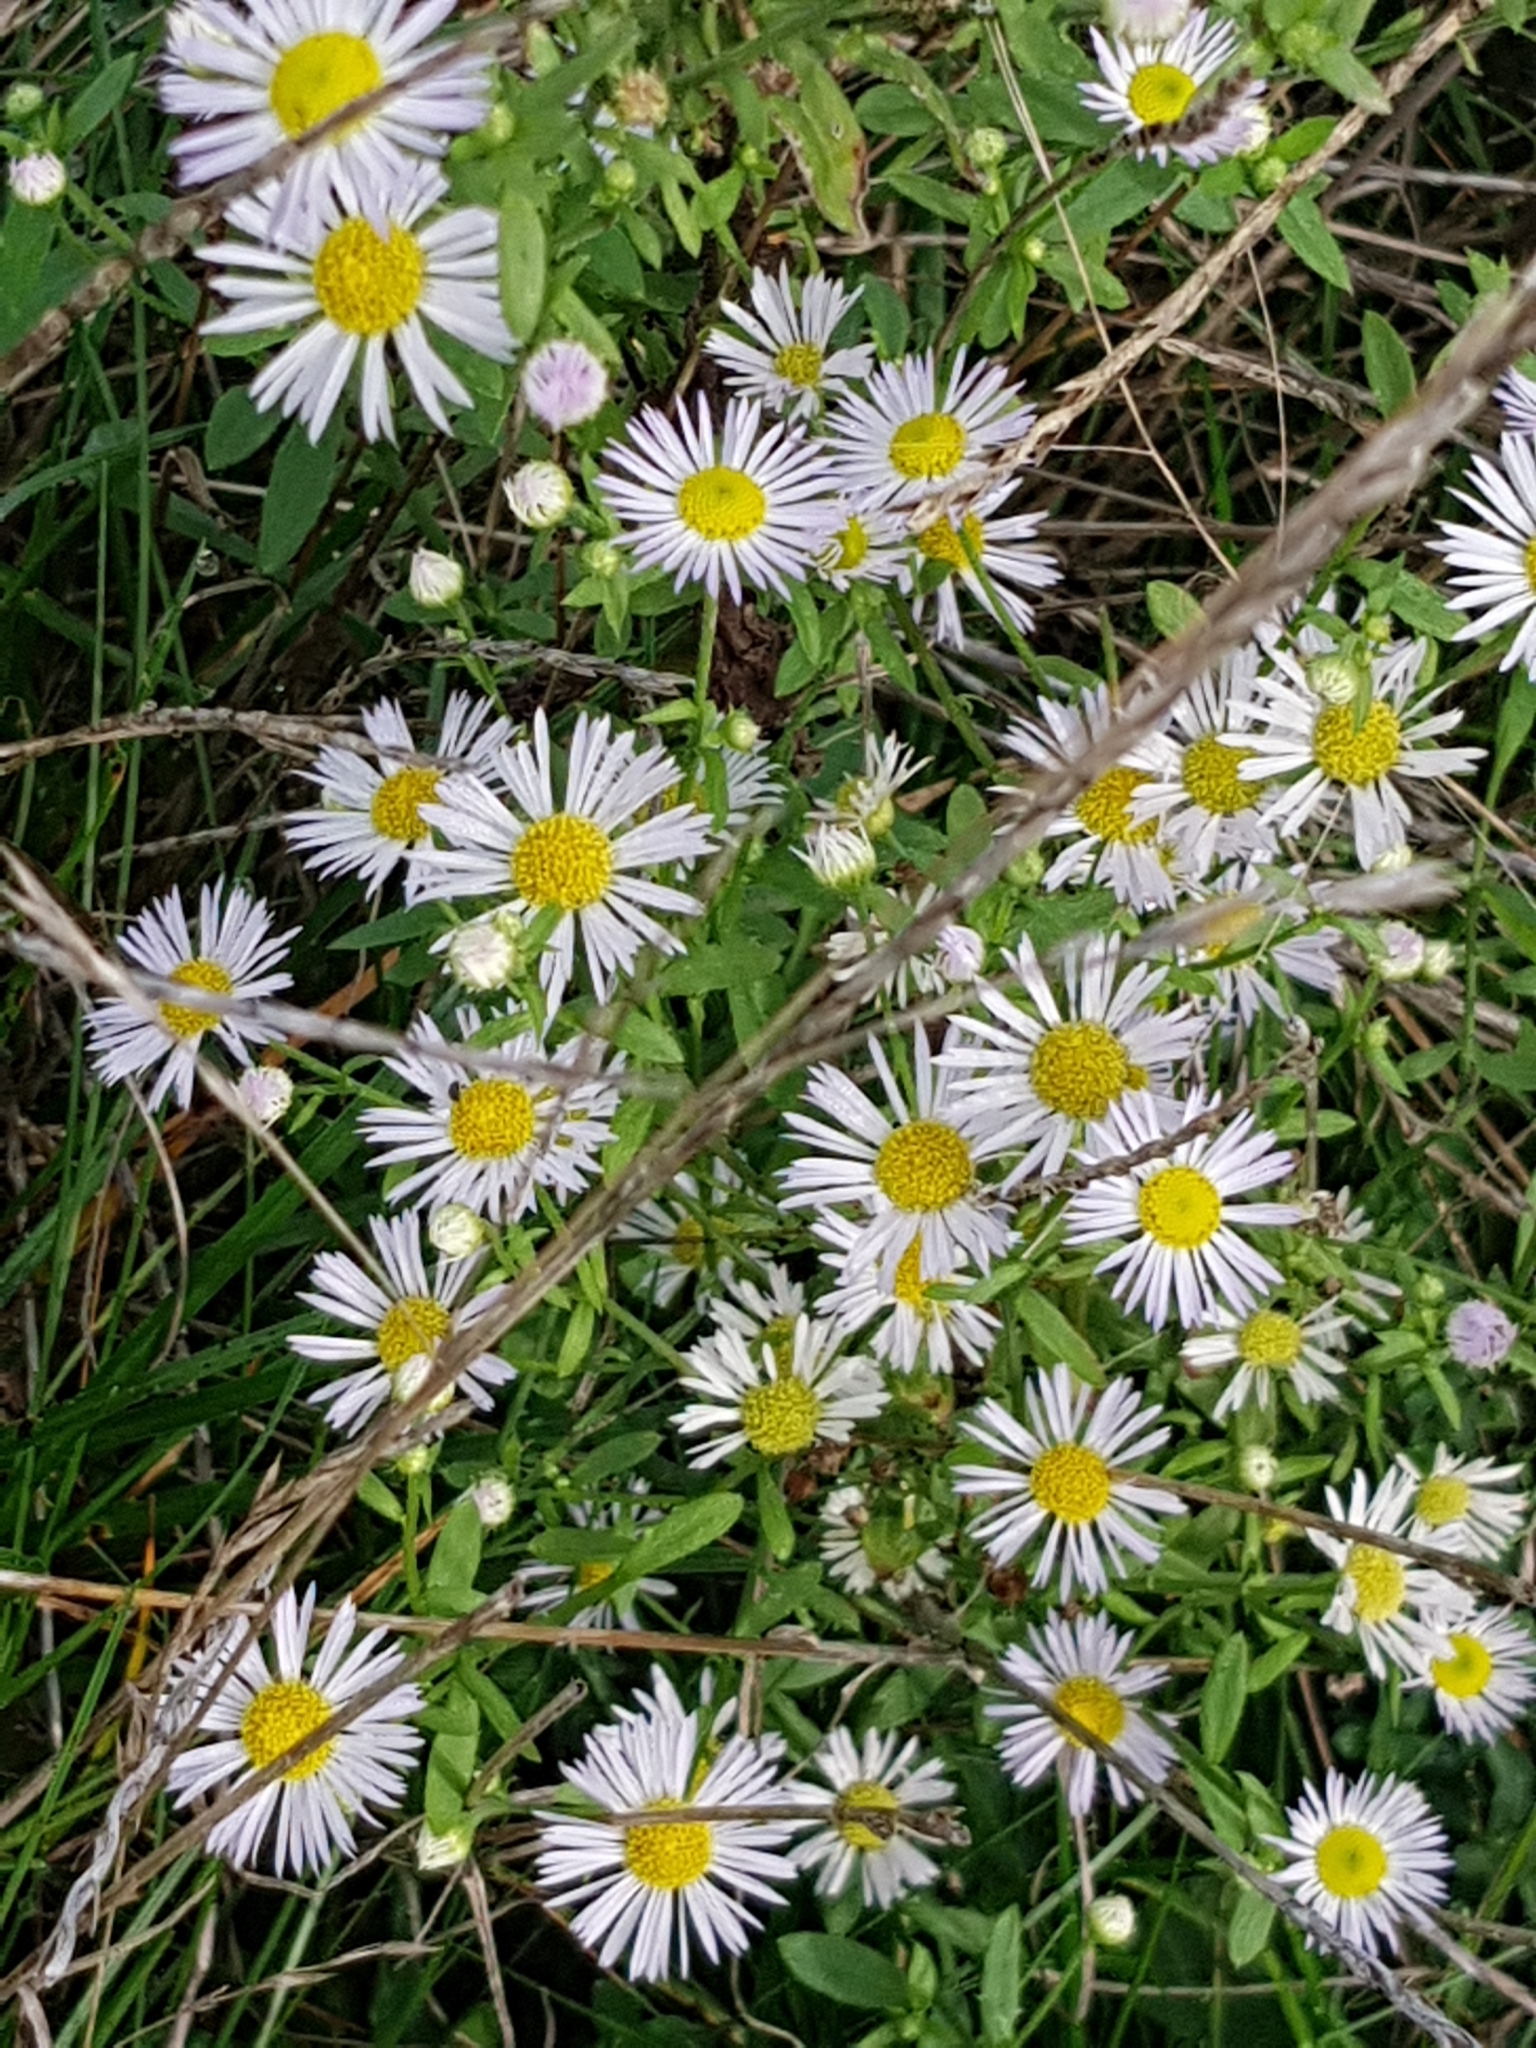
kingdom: Plantae
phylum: Tracheophyta
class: Magnoliopsida
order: Asterales
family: Asteraceae
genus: Erigeron
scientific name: Erigeron annuus
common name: Tall fleabane
